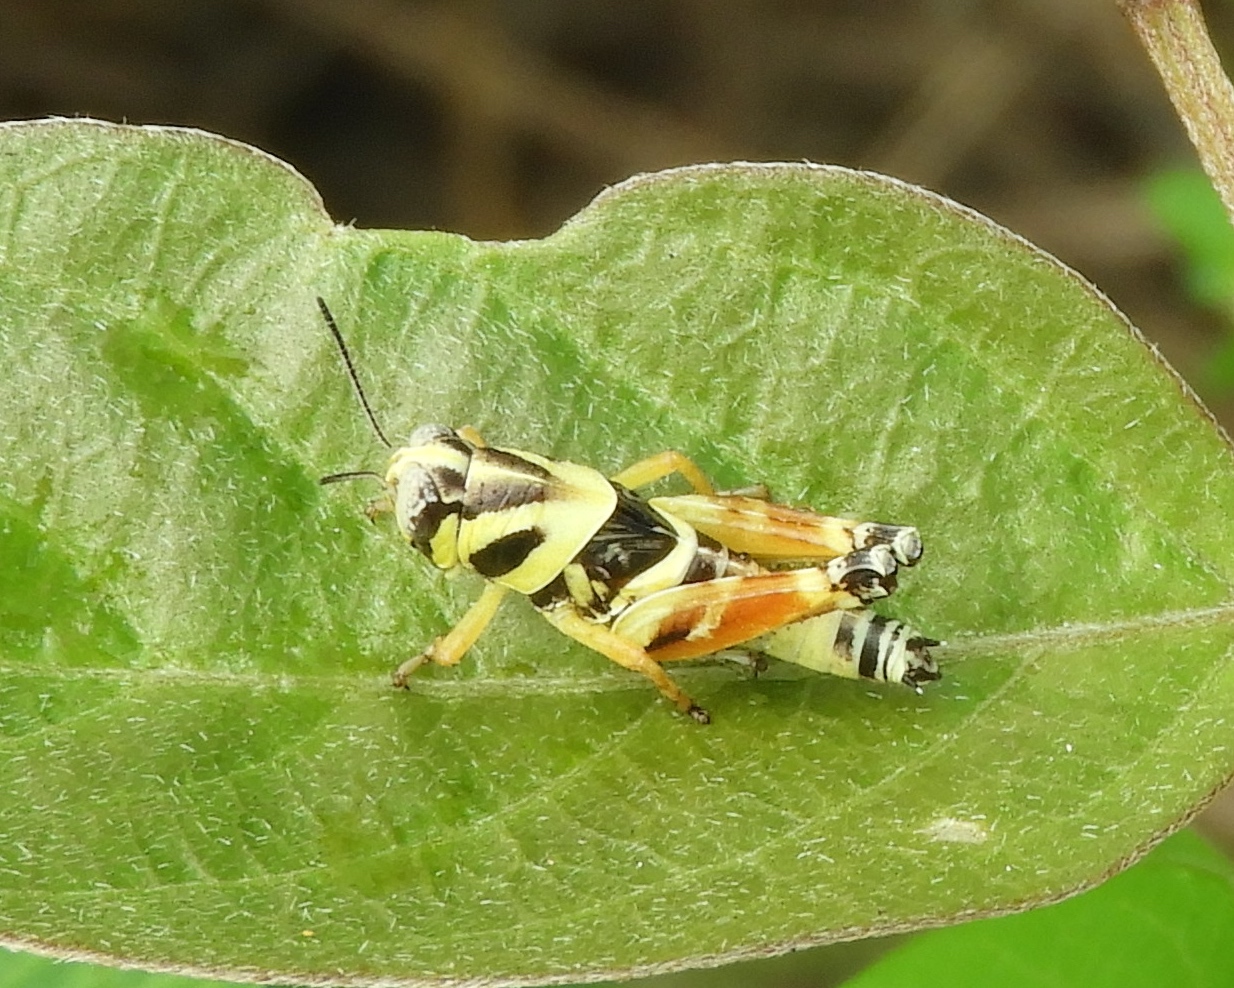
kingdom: Animalia
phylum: Arthropoda
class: Insecta
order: Orthoptera
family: Acrididae
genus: Aidemona
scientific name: Aidemona azteca
